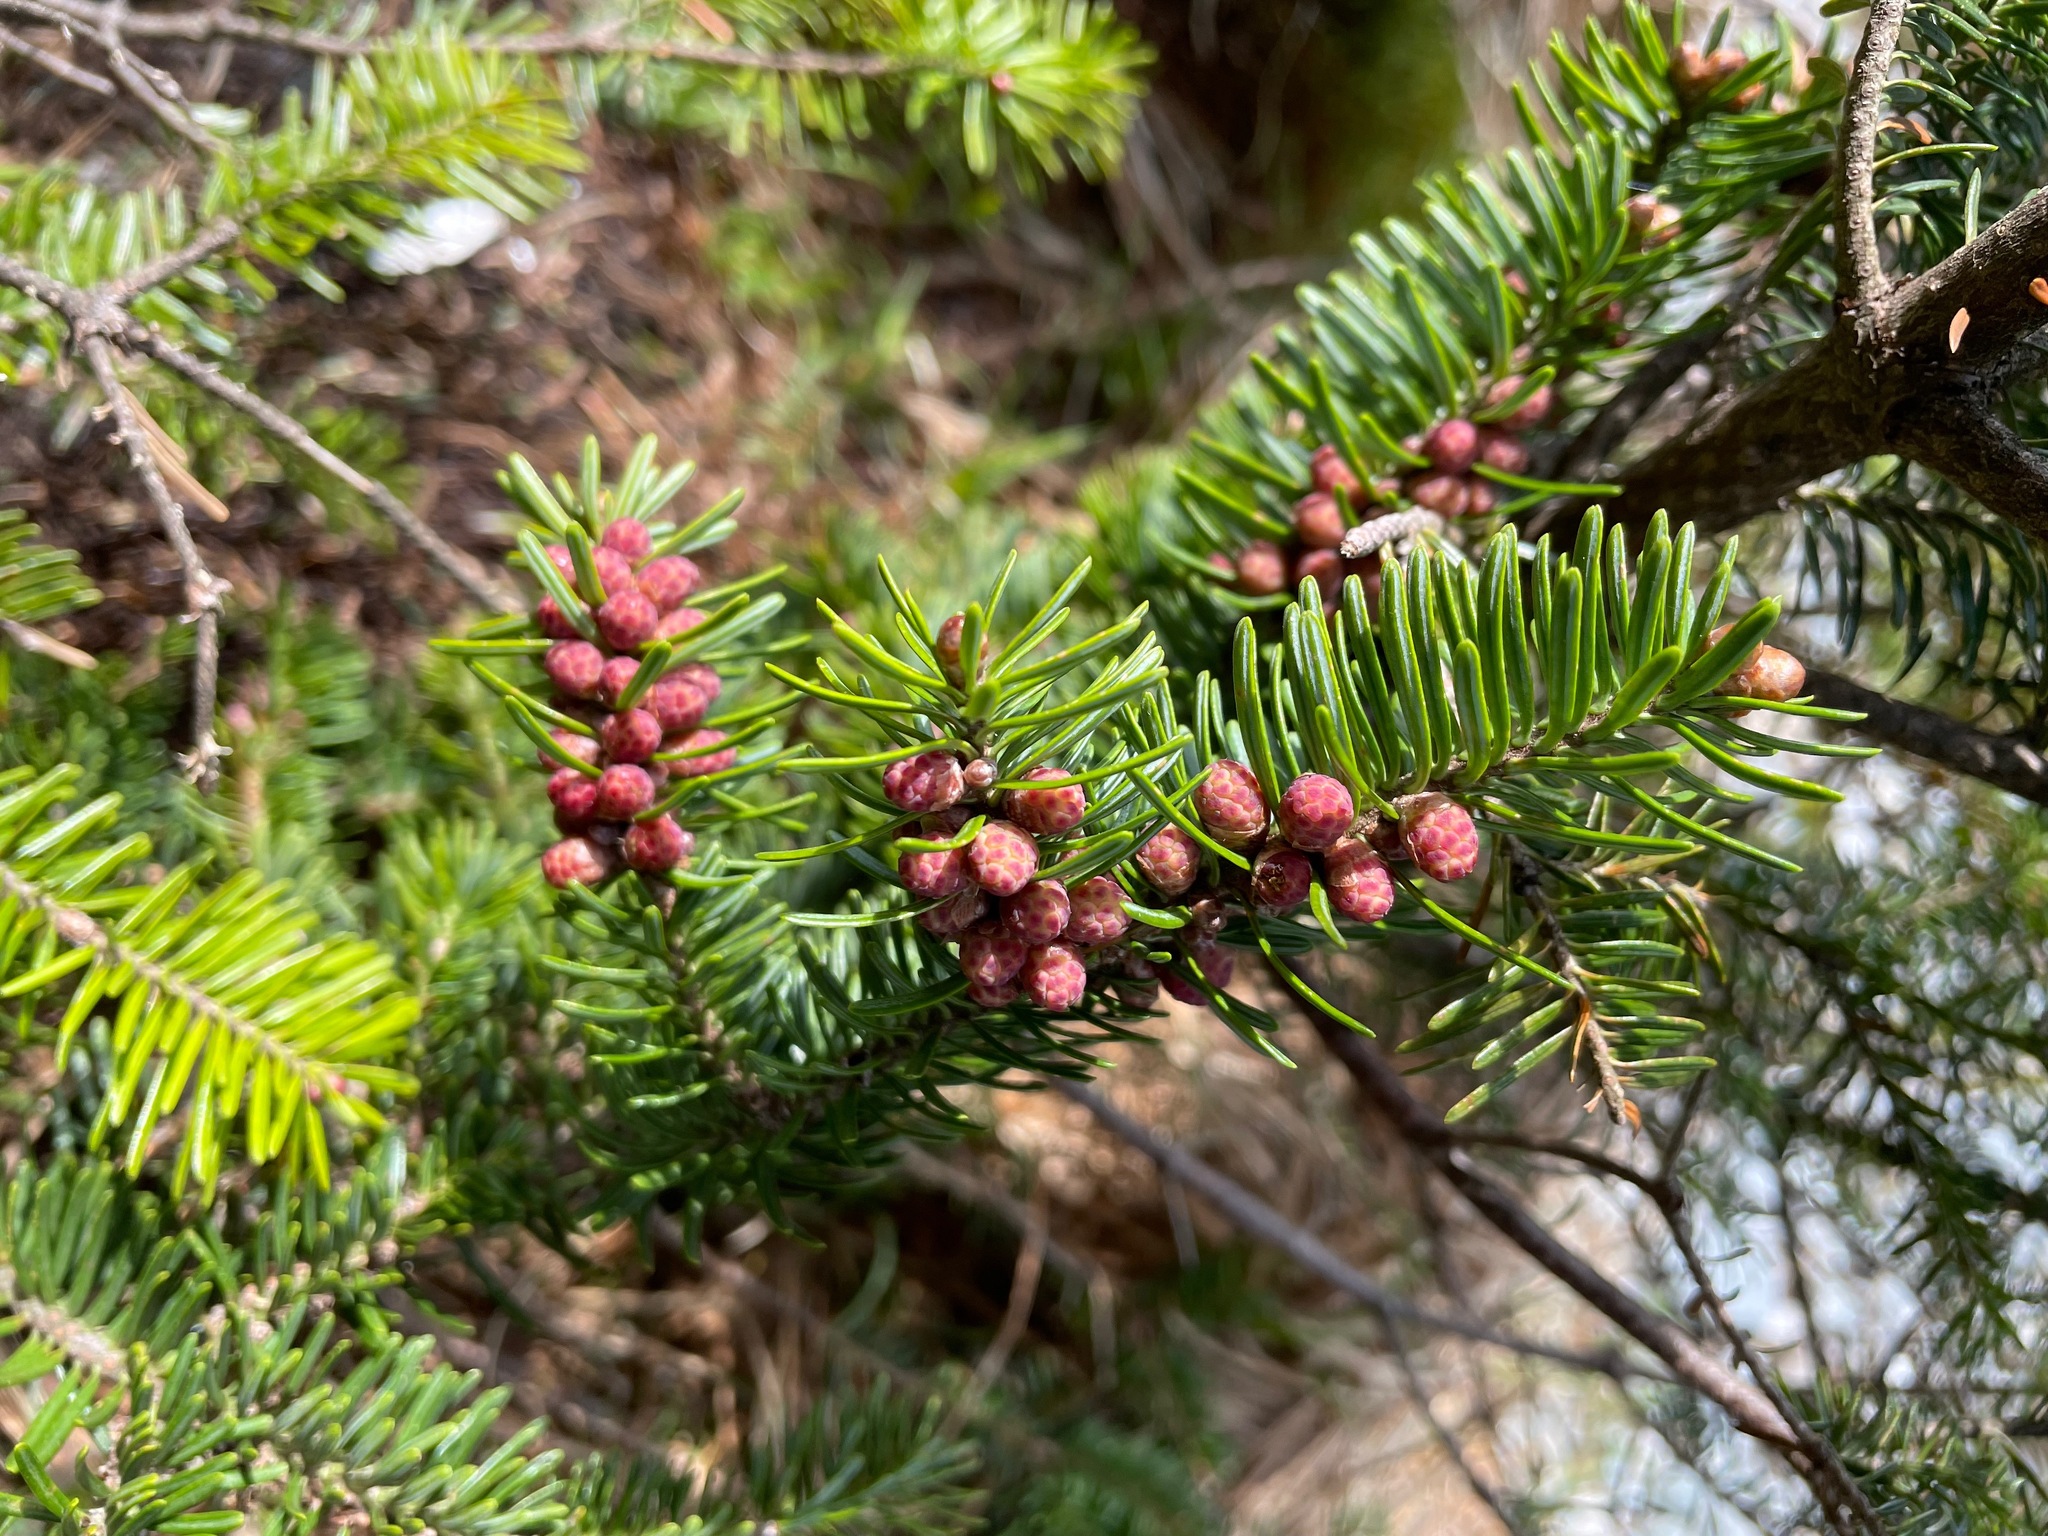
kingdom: Plantae
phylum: Tracheophyta
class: Pinopsida
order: Pinales
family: Pinaceae
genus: Abies
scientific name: Abies balsamea
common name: Balsam fir
